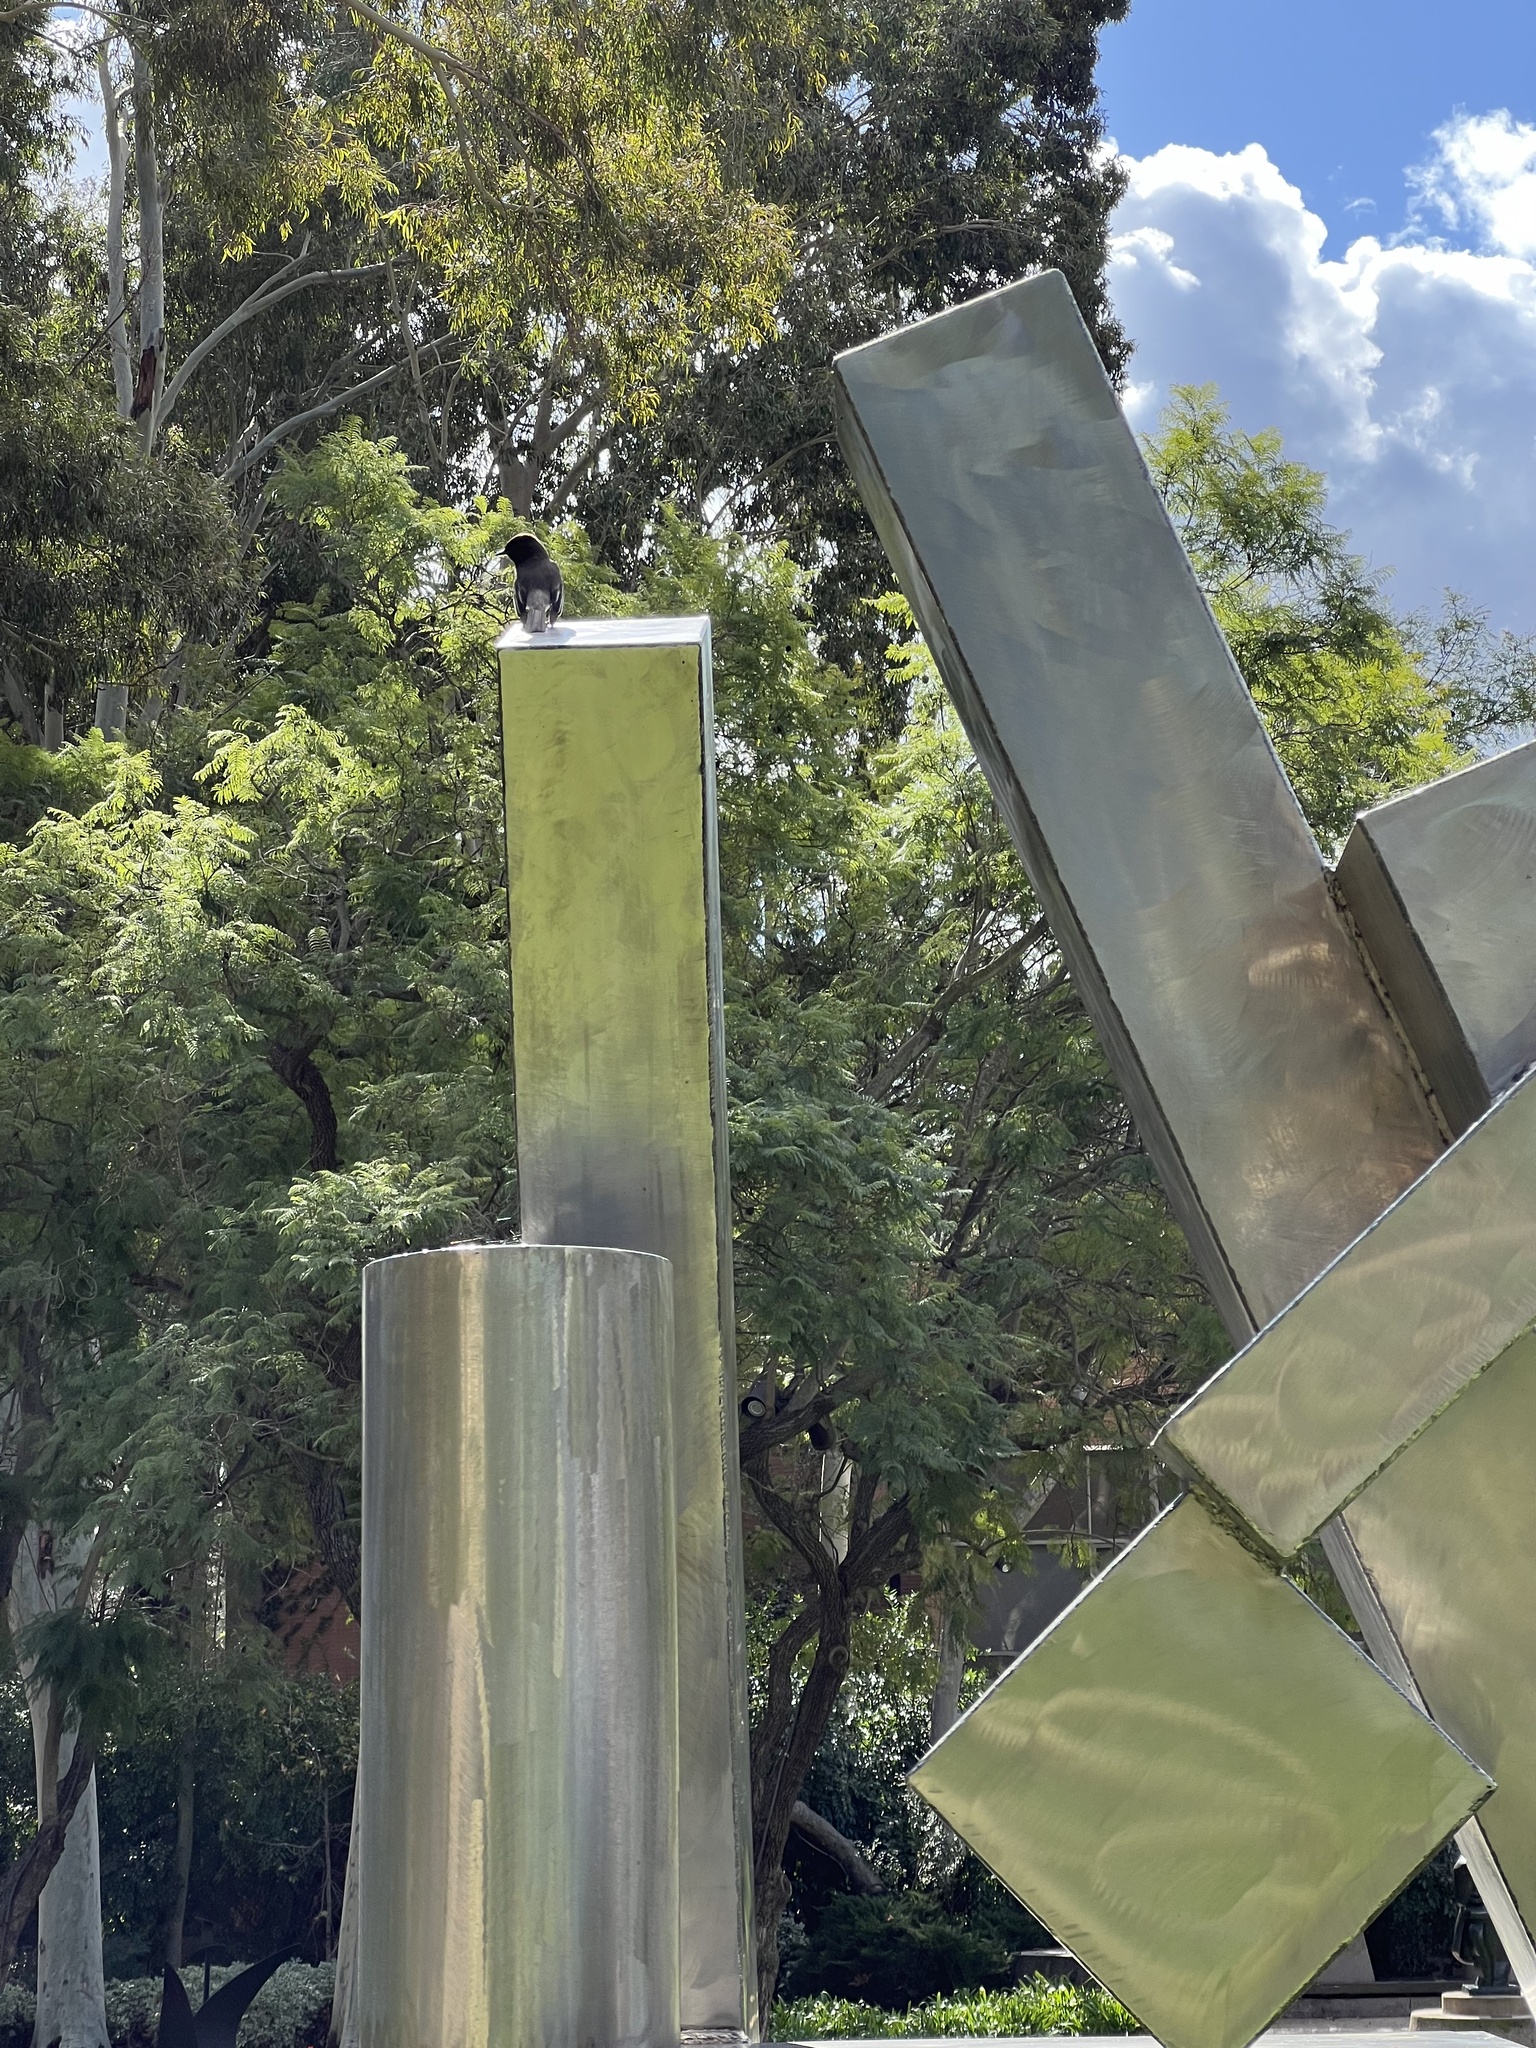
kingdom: Animalia
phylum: Chordata
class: Aves
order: Passeriformes
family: Tyrannidae
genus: Sayornis
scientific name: Sayornis nigricans
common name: Black phoebe
